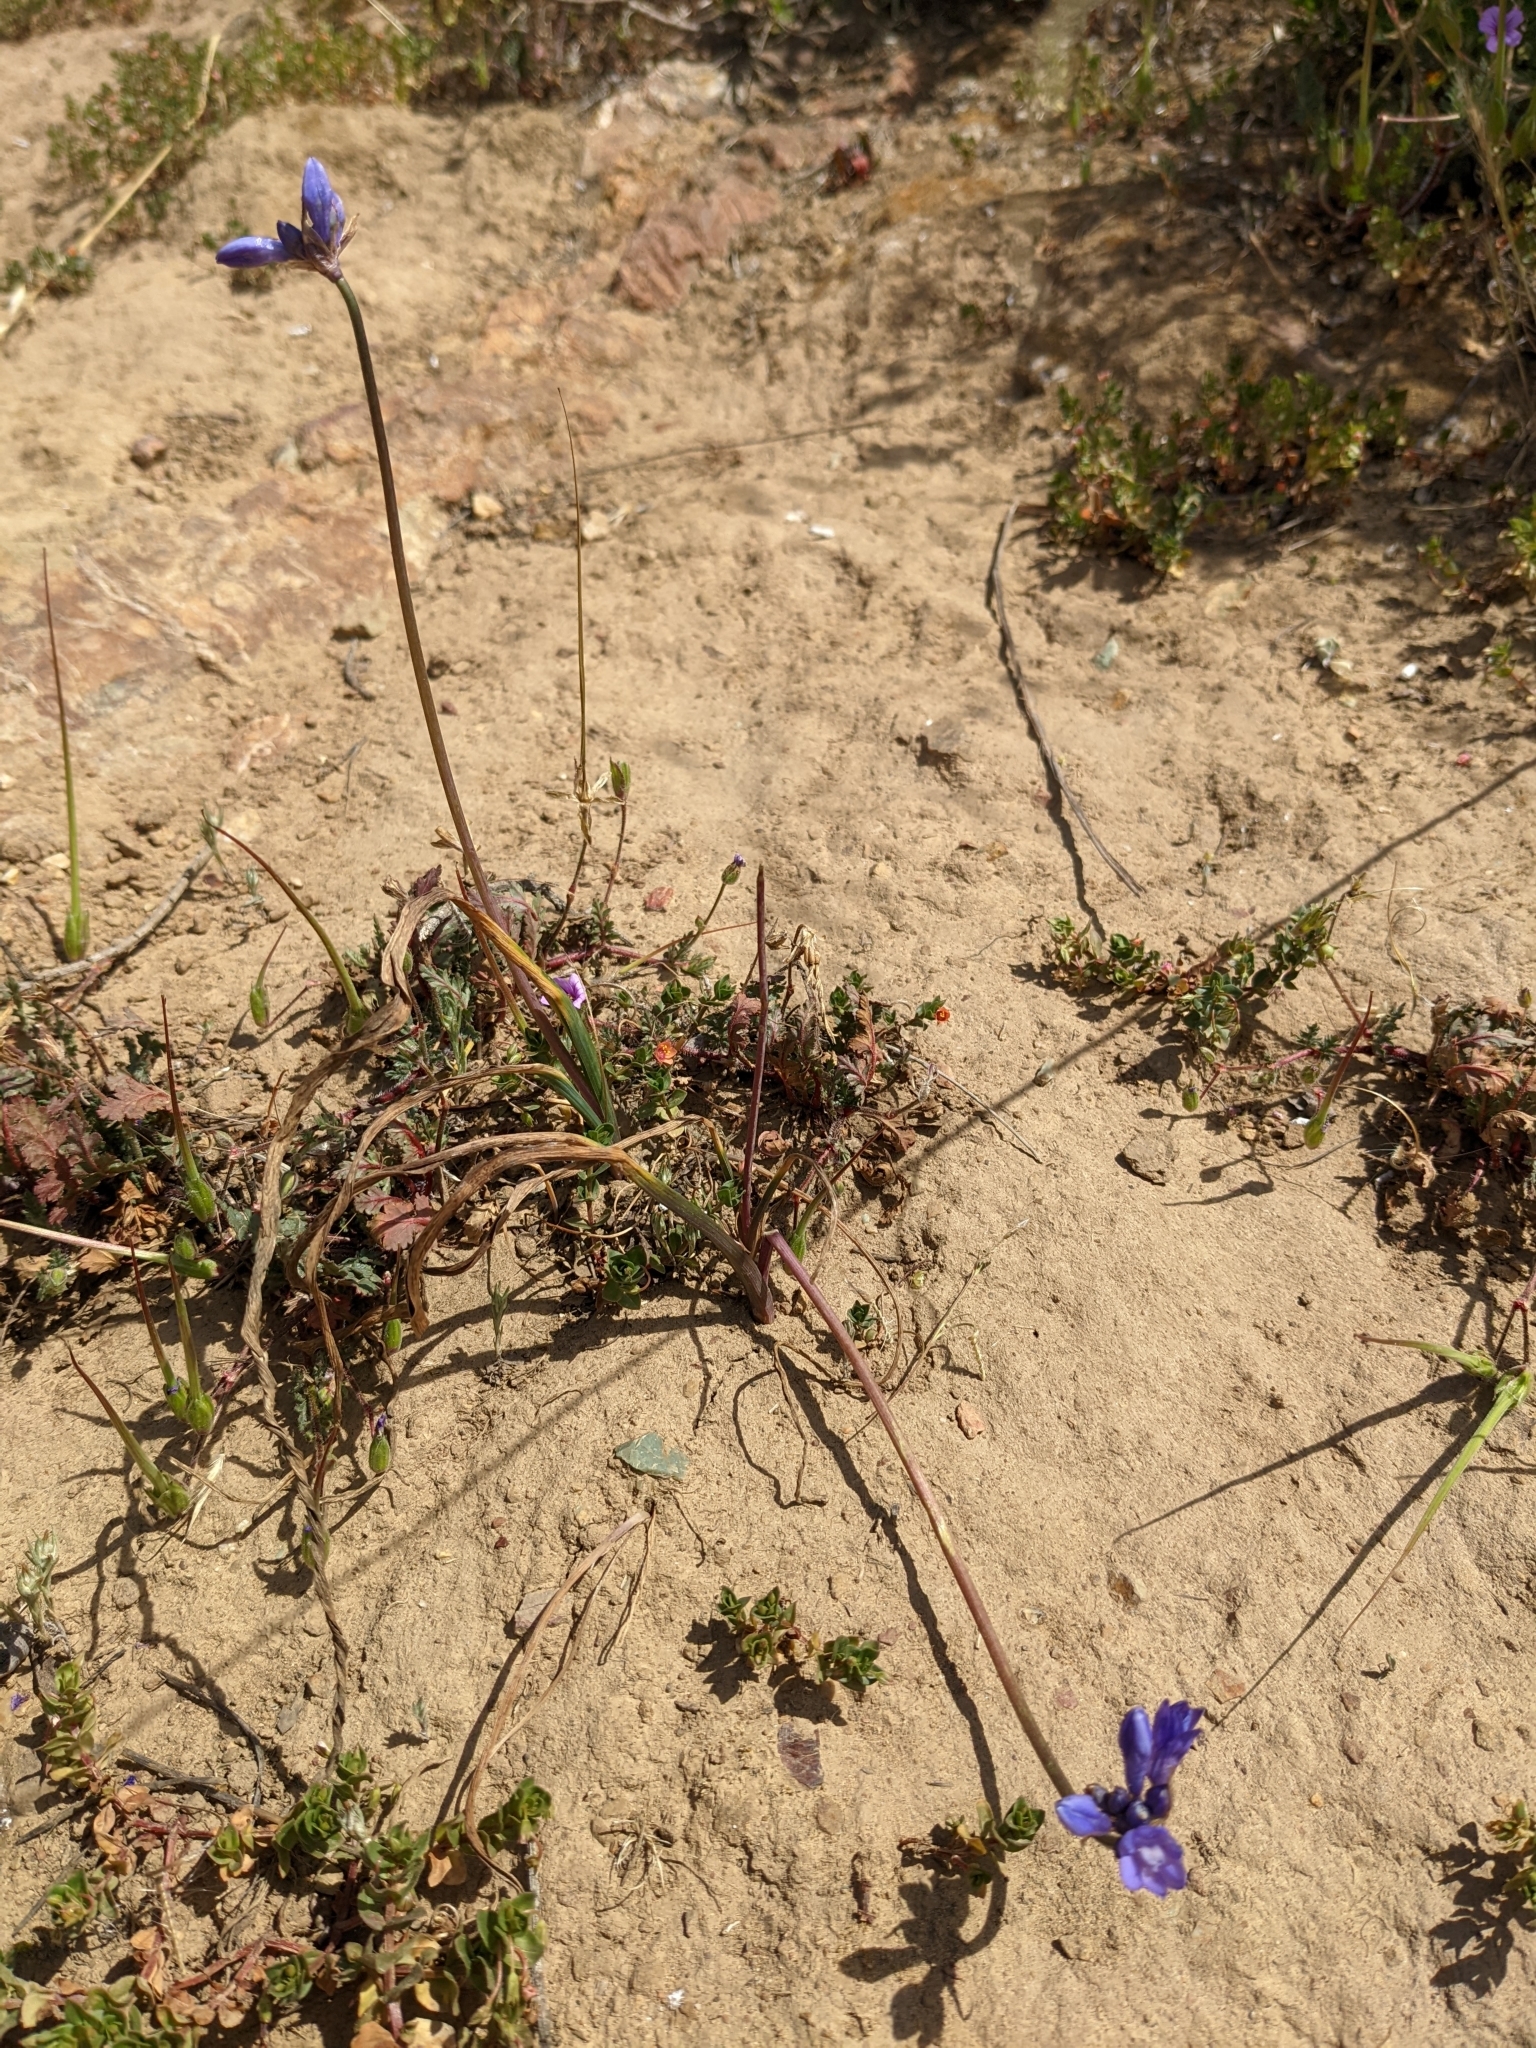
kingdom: Plantae
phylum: Tracheophyta
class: Liliopsida
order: Asparagales
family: Asparagaceae
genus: Dipterostemon
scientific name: Dipterostemon capitatus
